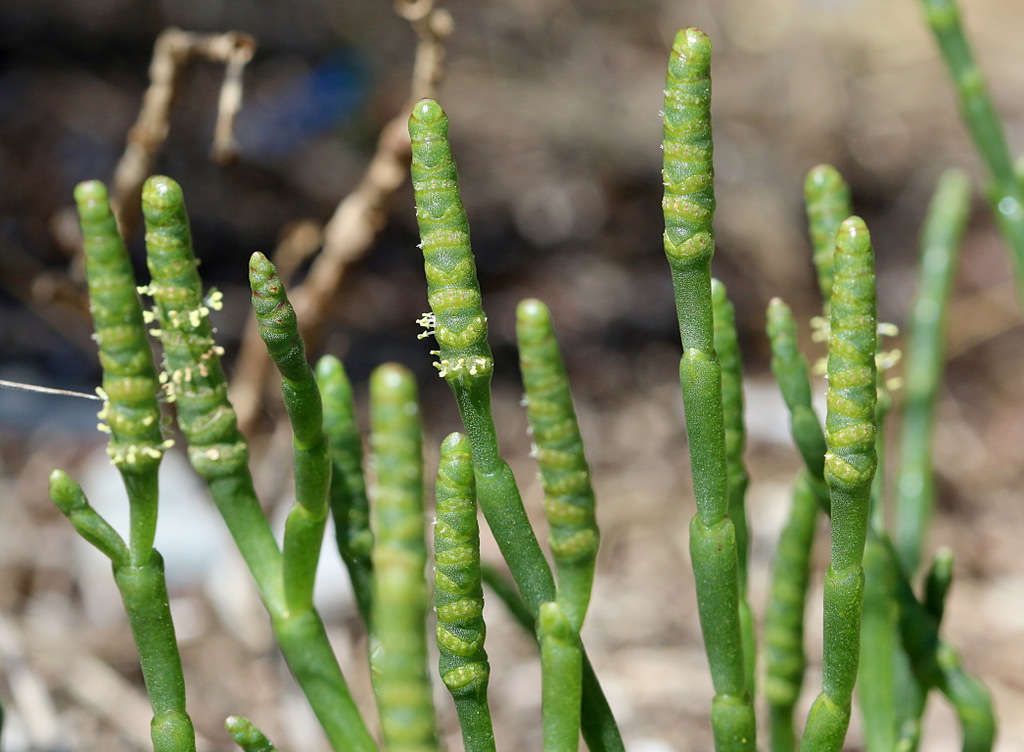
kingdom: Plantae
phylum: Tracheophyta
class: Magnoliopsida
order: Caryophyllales
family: Amaranthaceae
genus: Salicornia
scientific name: Salicornia quinqueflora
